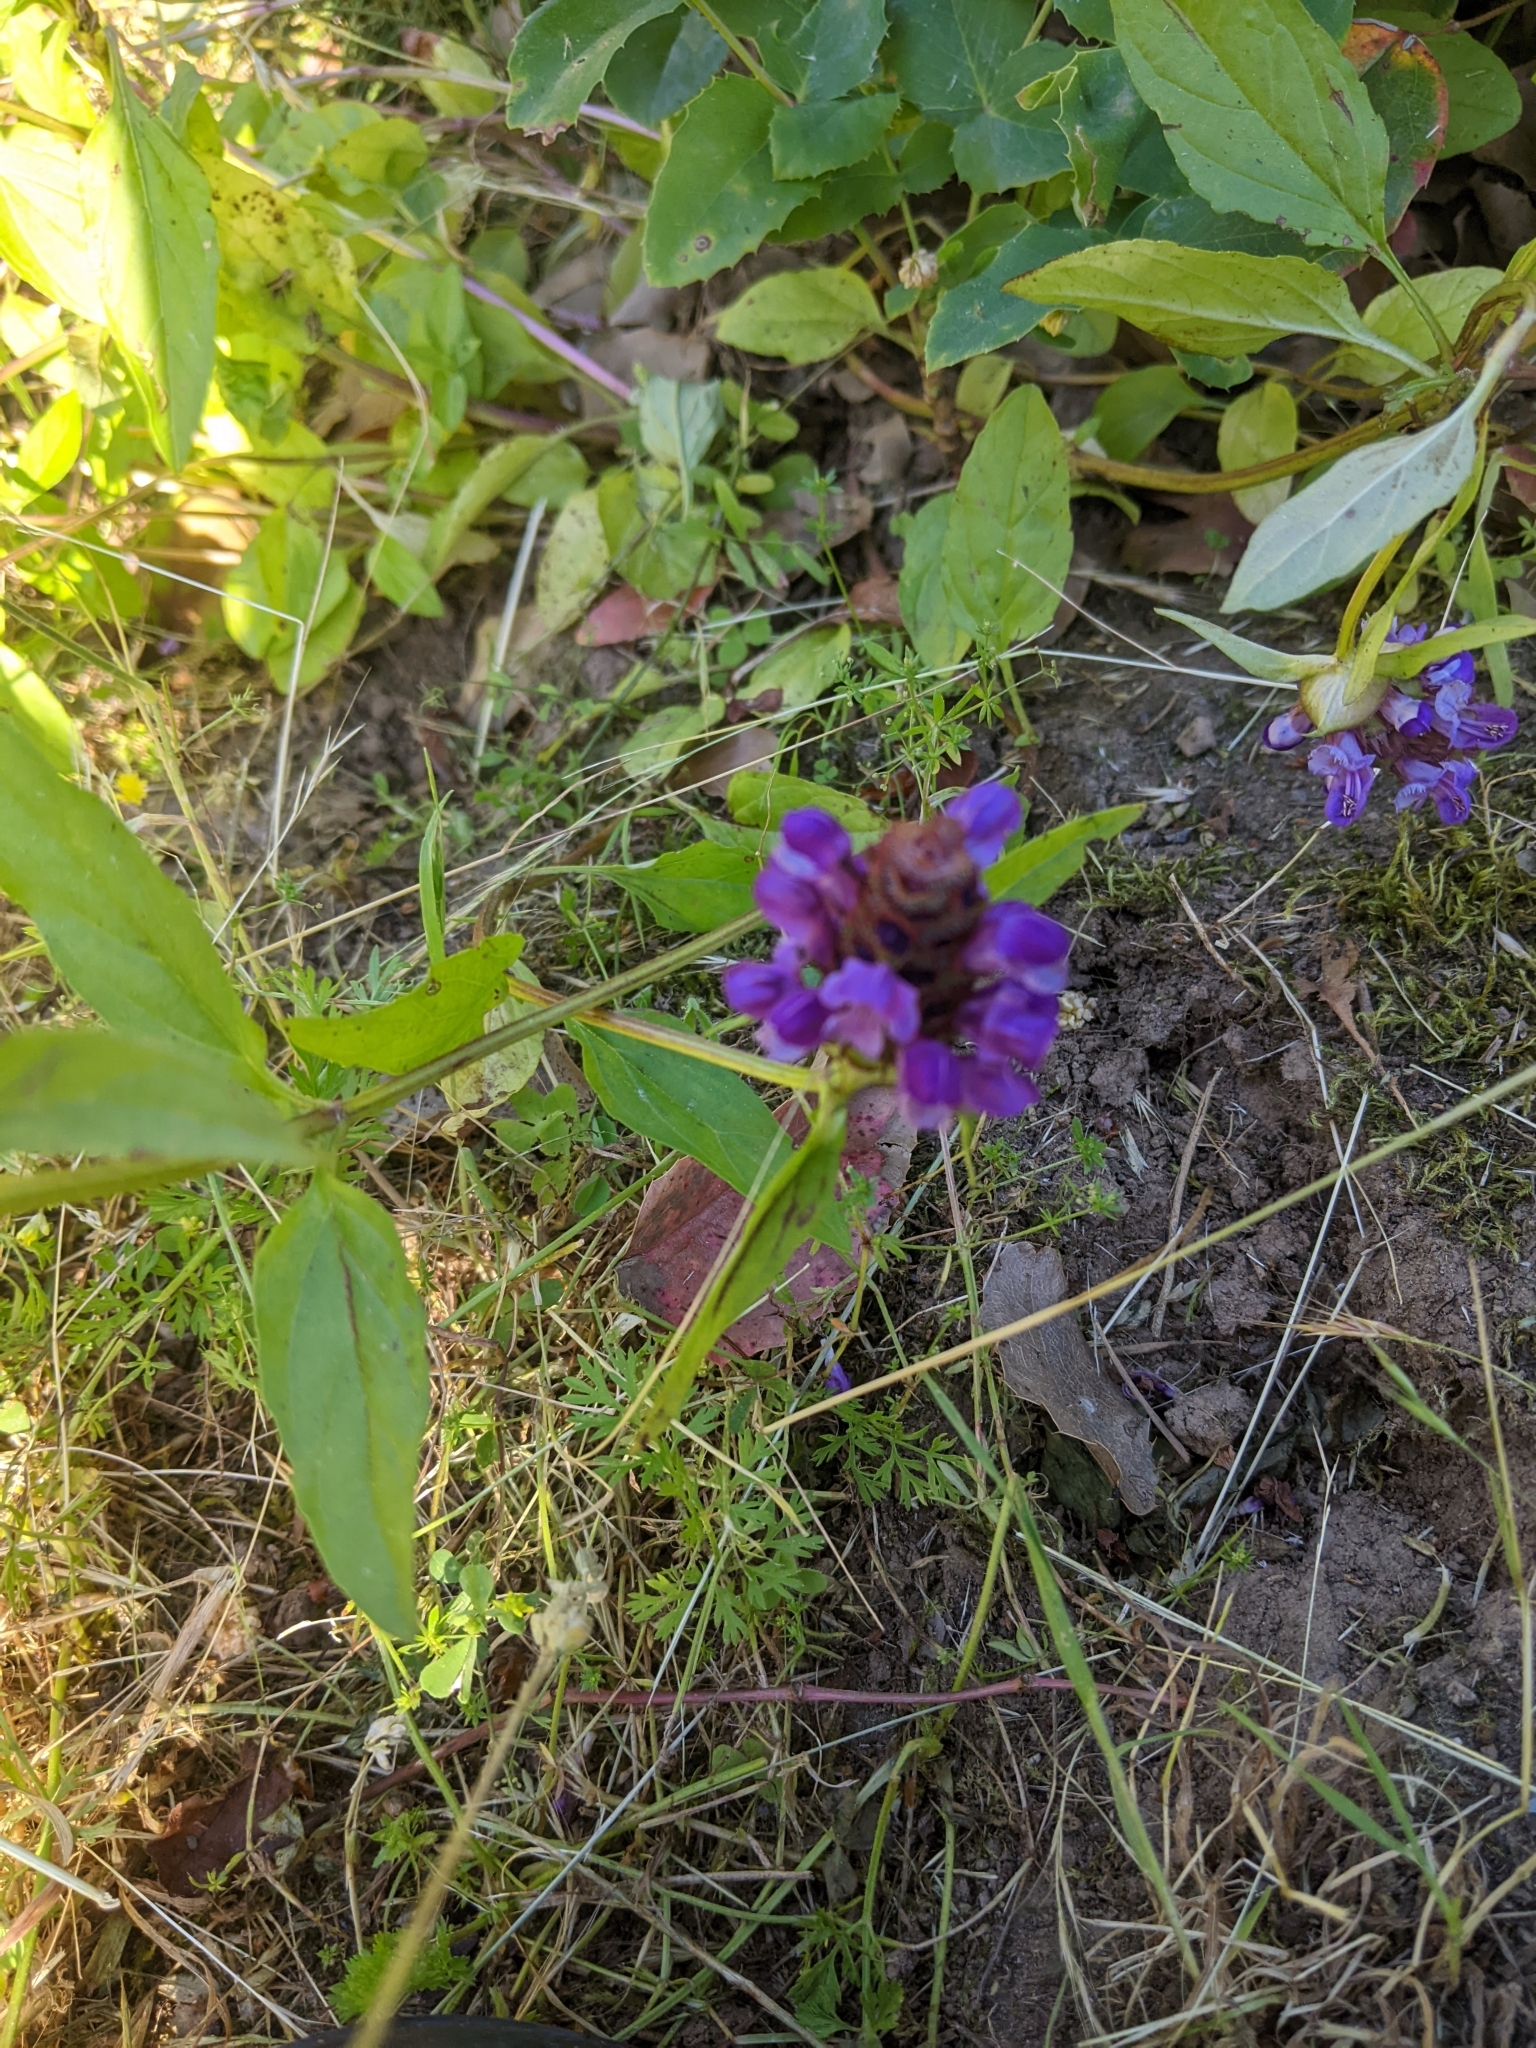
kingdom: Plantae
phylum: Tracheophyta
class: Magnoliopsida
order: Lamiales
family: Lamiaceae
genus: Prunella
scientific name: Prunella vulgaris
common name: Heal-all
